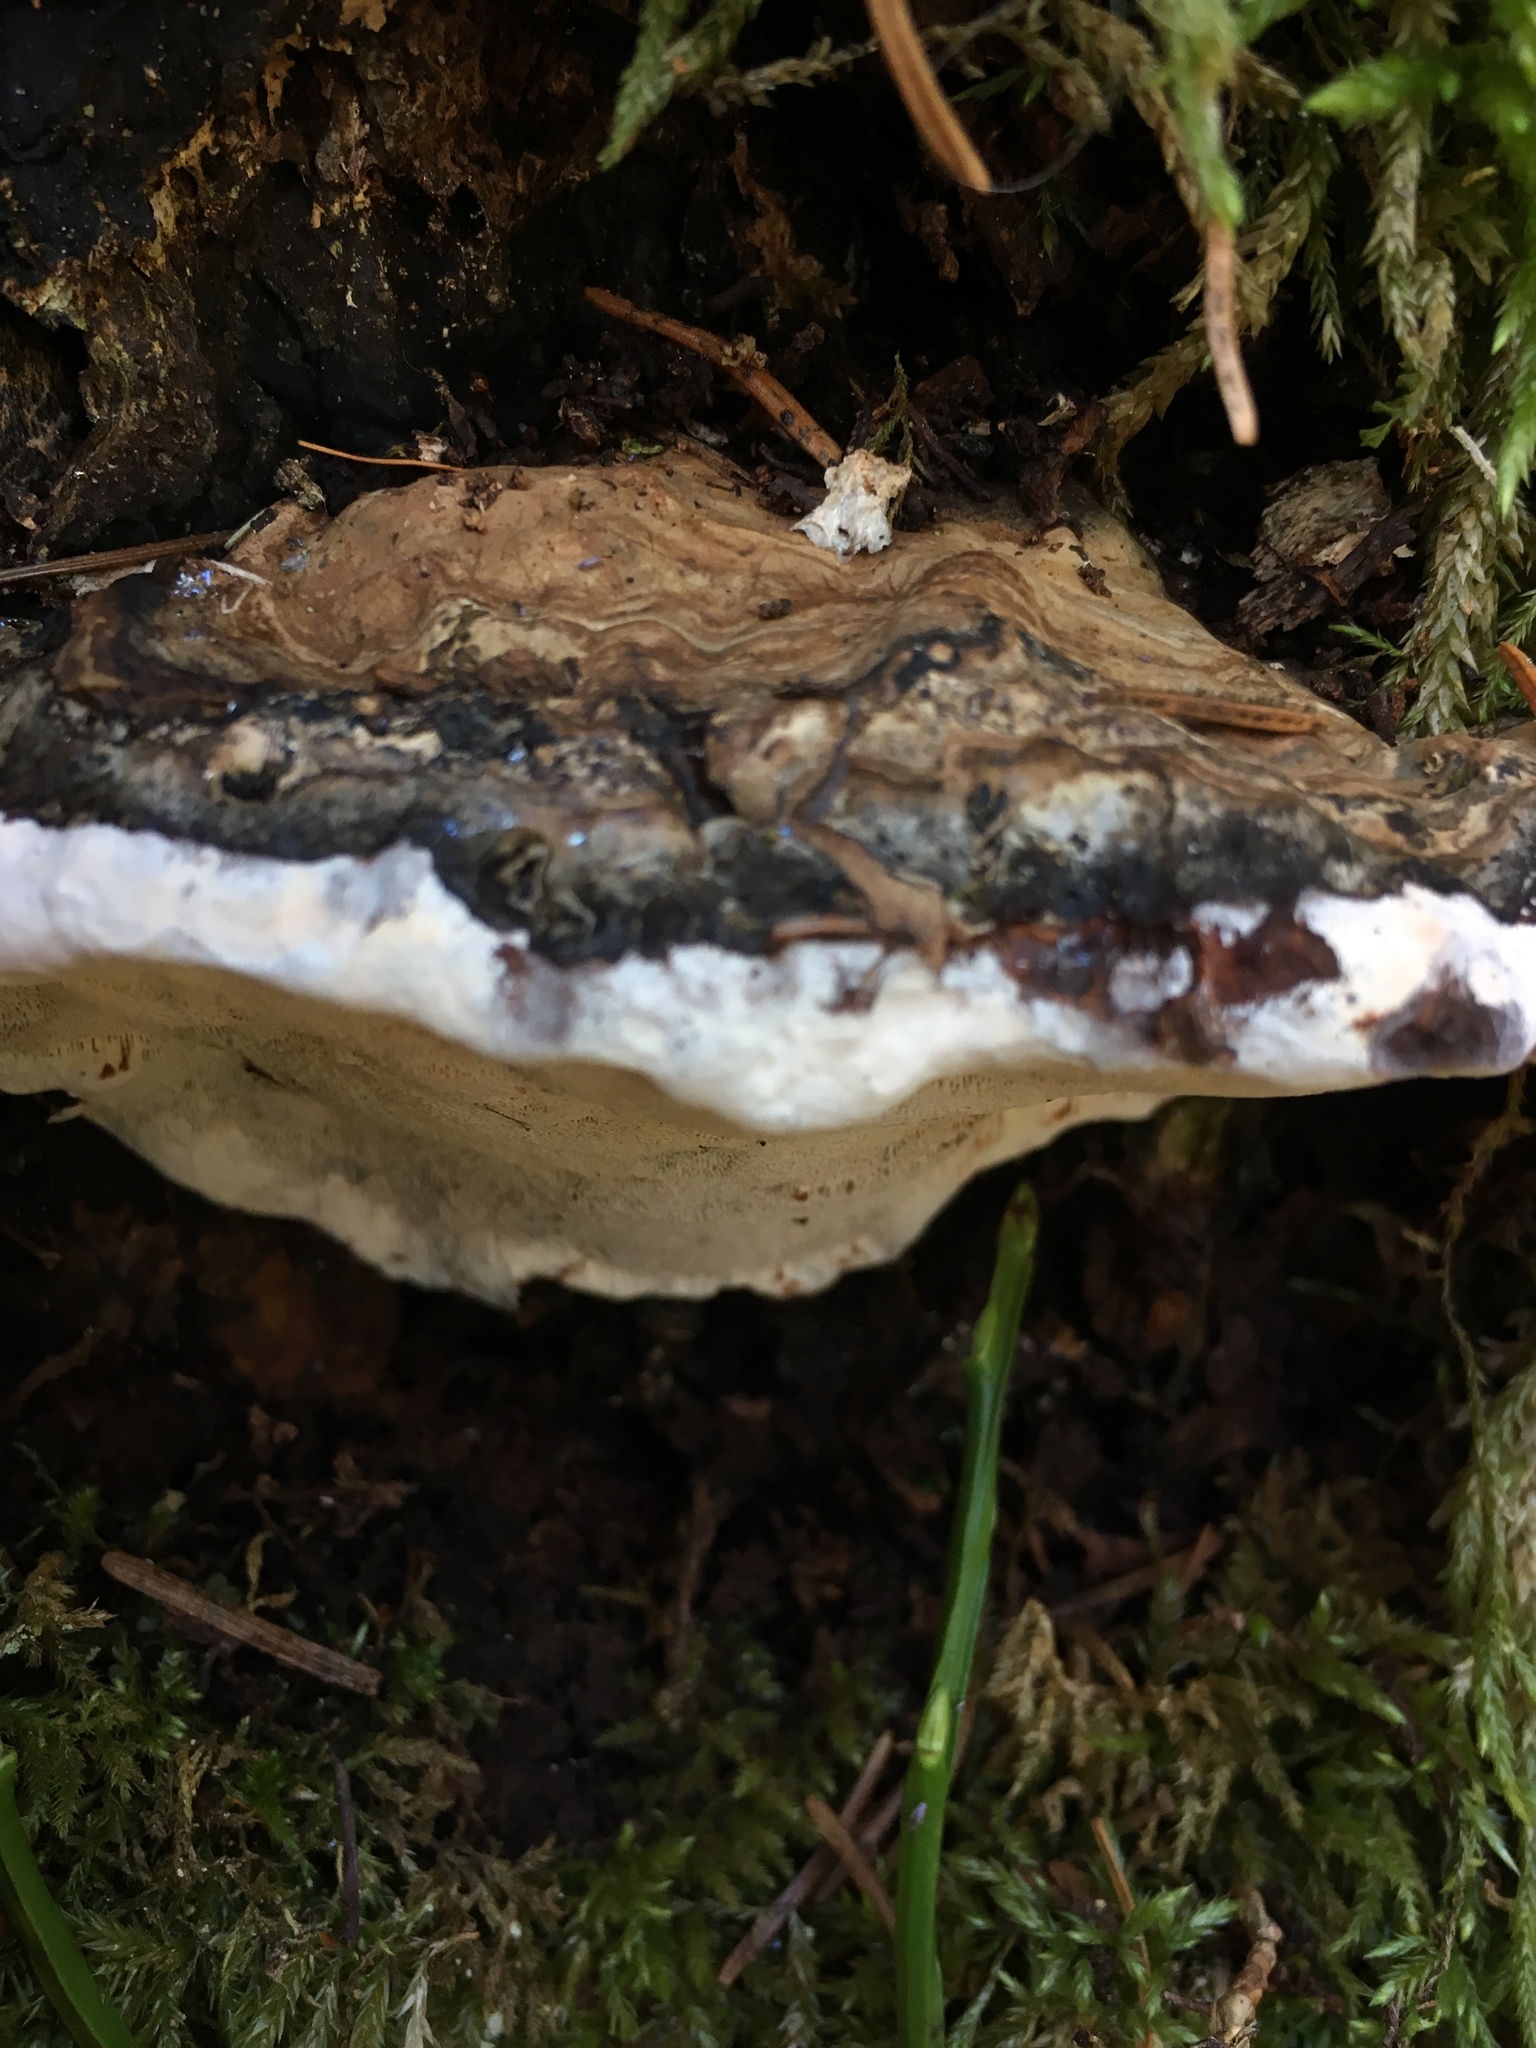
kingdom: Fungi
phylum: Basidiomycota
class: Agaricomycetes
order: Polyporales
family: Polyporaceae
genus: Ganoderma
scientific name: Ganoderma applanatum
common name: Artist's bracket
